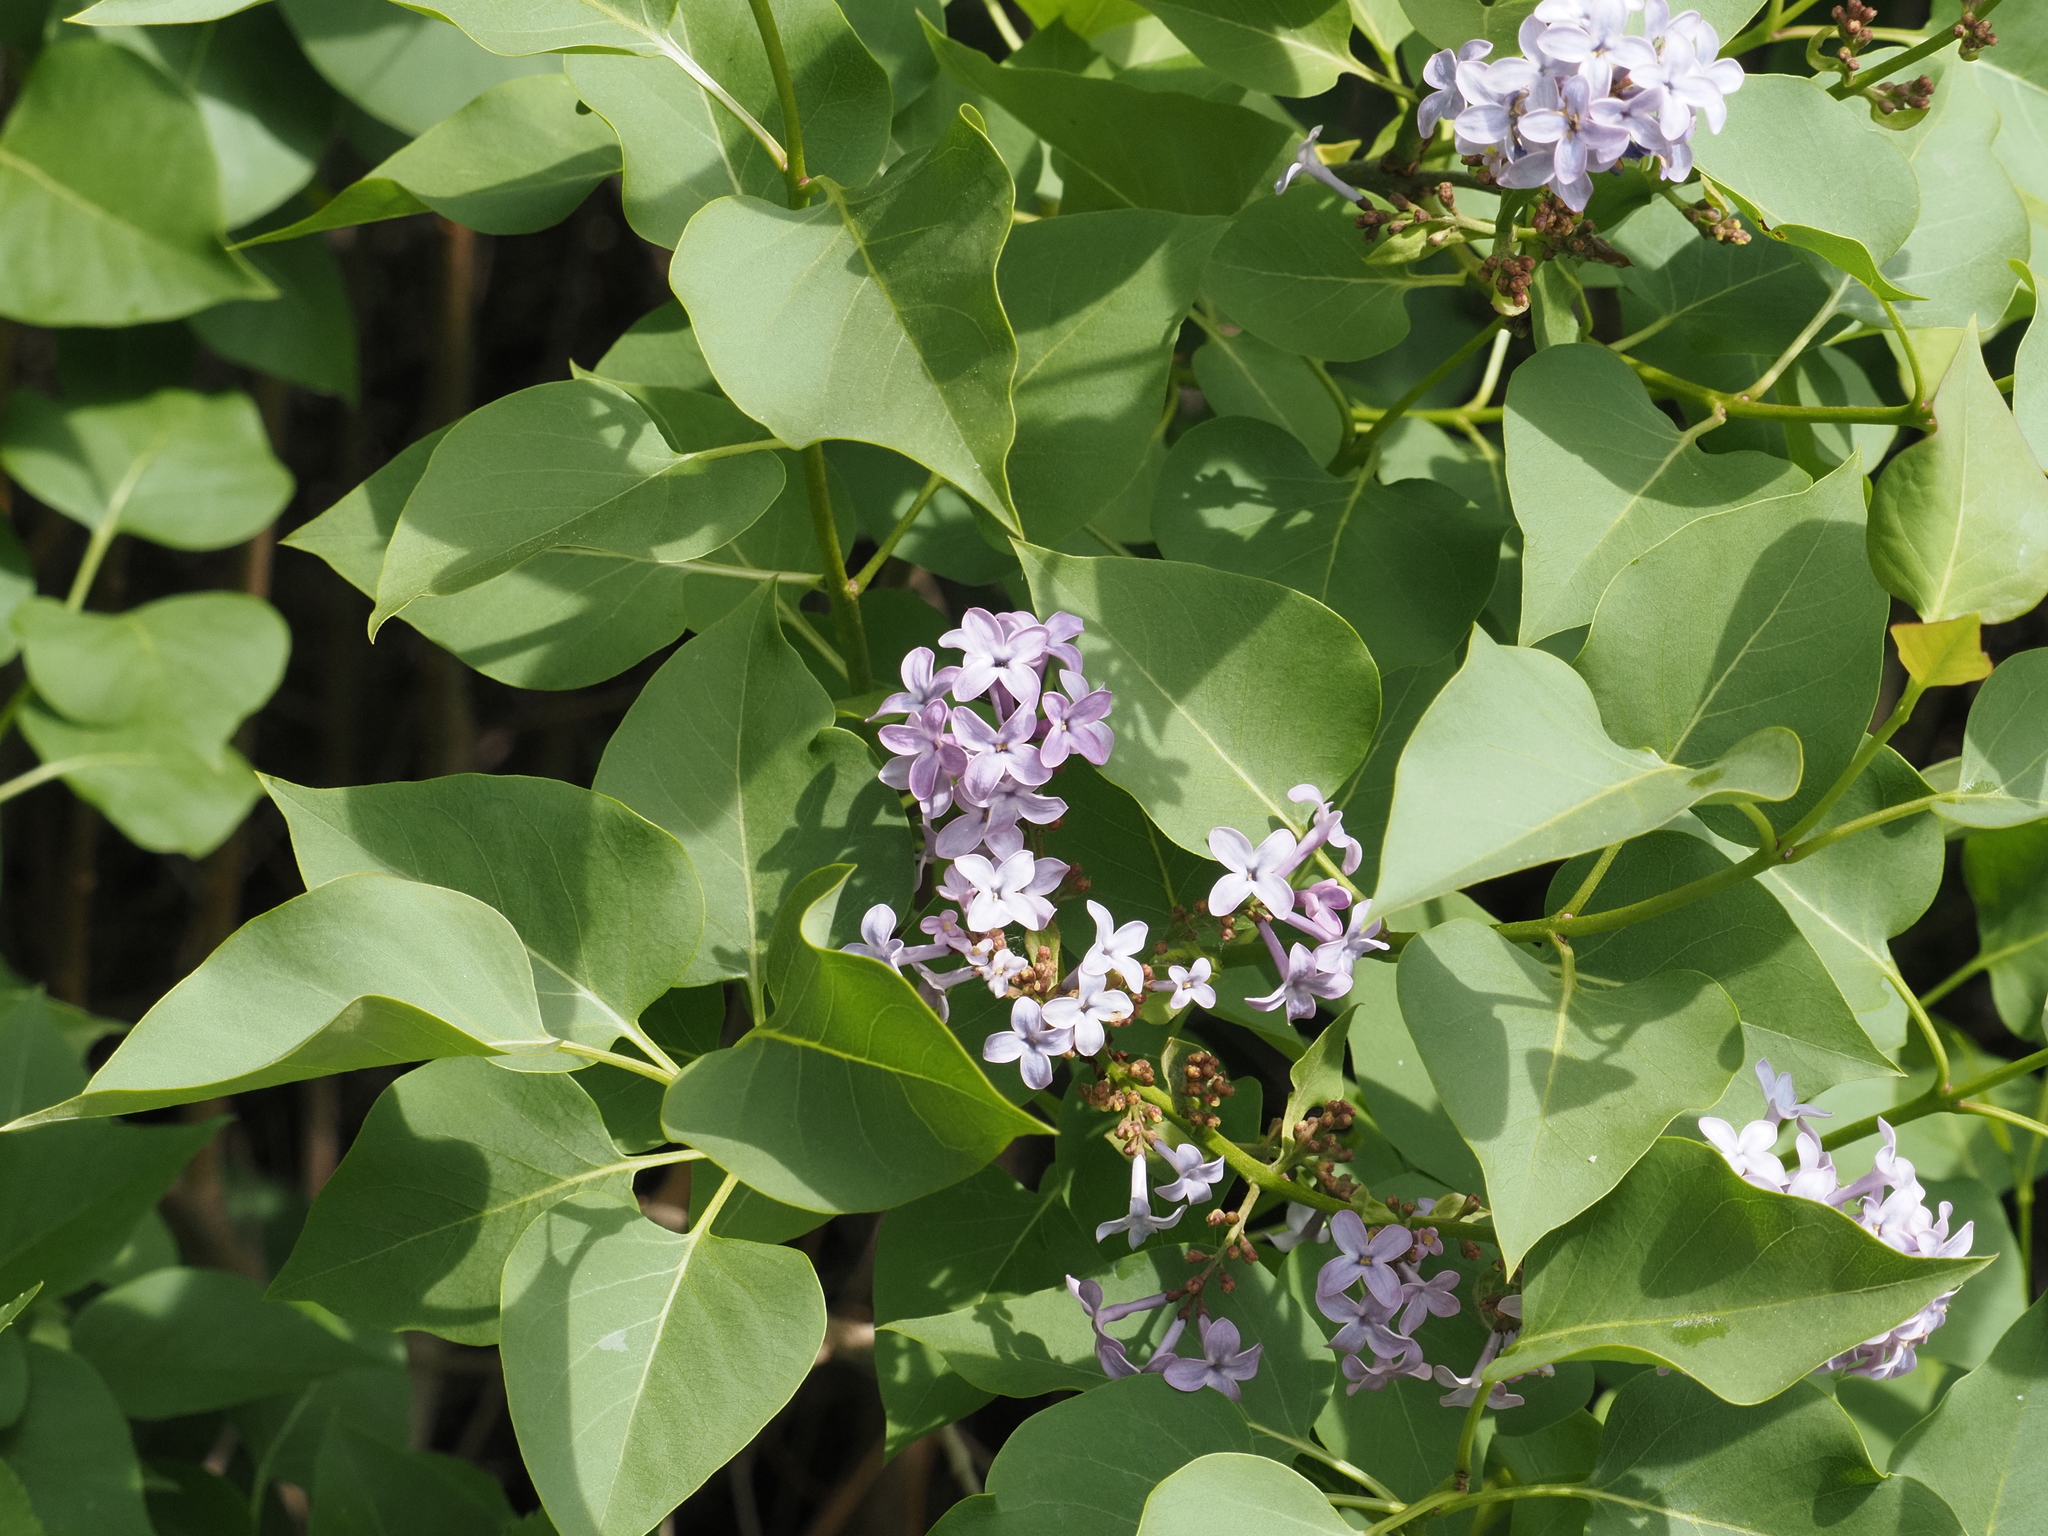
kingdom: Plantae
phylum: Tracheophyta
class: Magnoliopsida
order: Lamiales
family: Oleaceae
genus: Syringa
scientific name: Syringa vulgaris
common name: Common lilac
